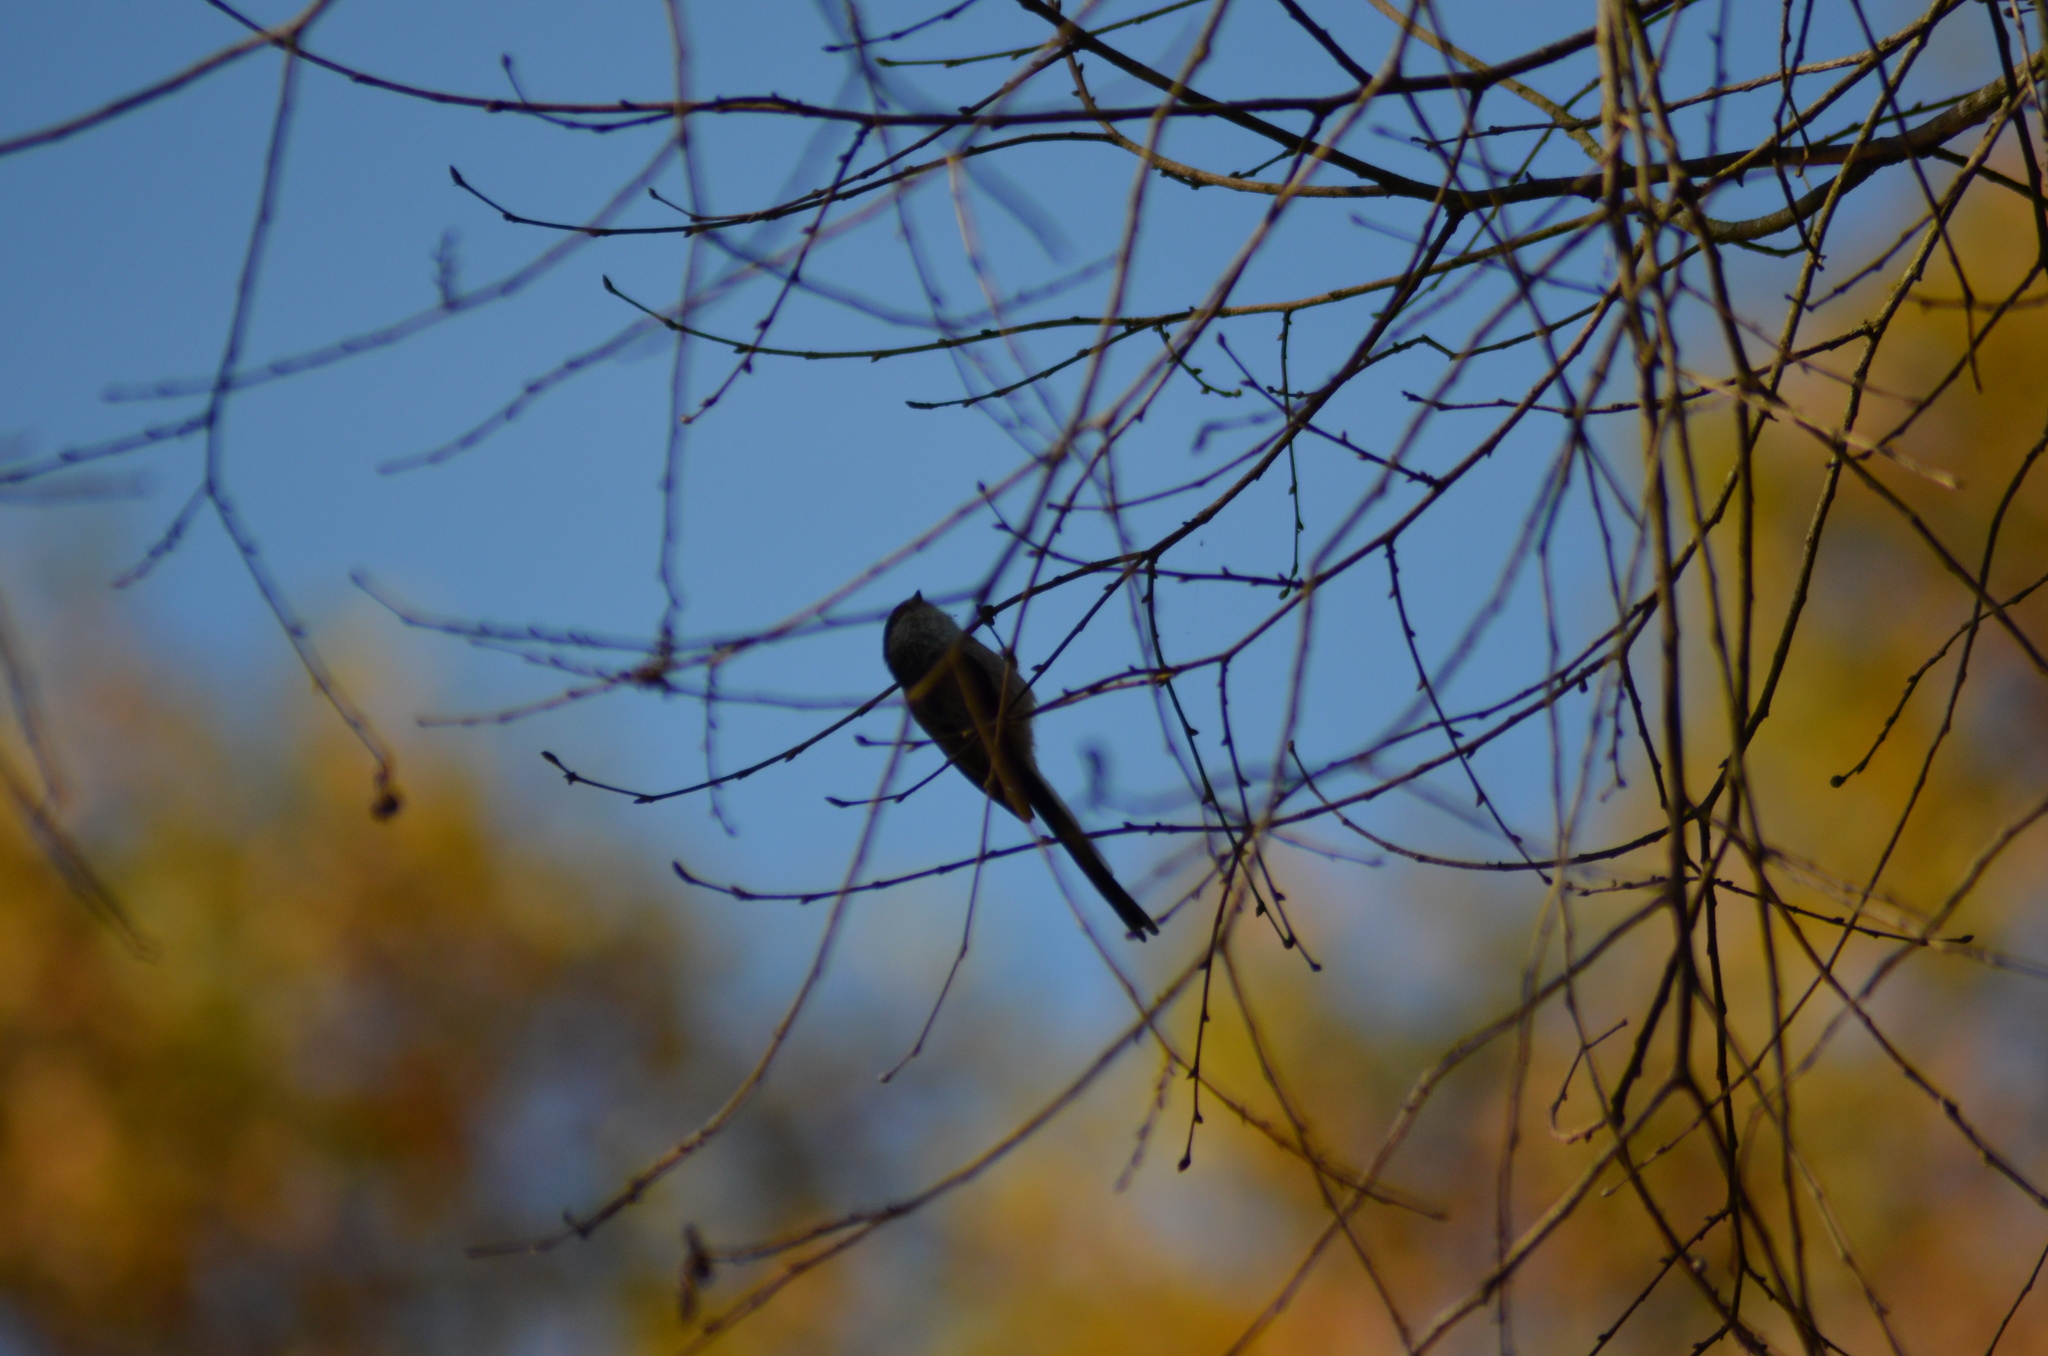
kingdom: Animalia
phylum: Chordata
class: Aves
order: Passeriformes
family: Aegithalidae
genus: Aegithalos
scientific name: Aegithalos caudatus
